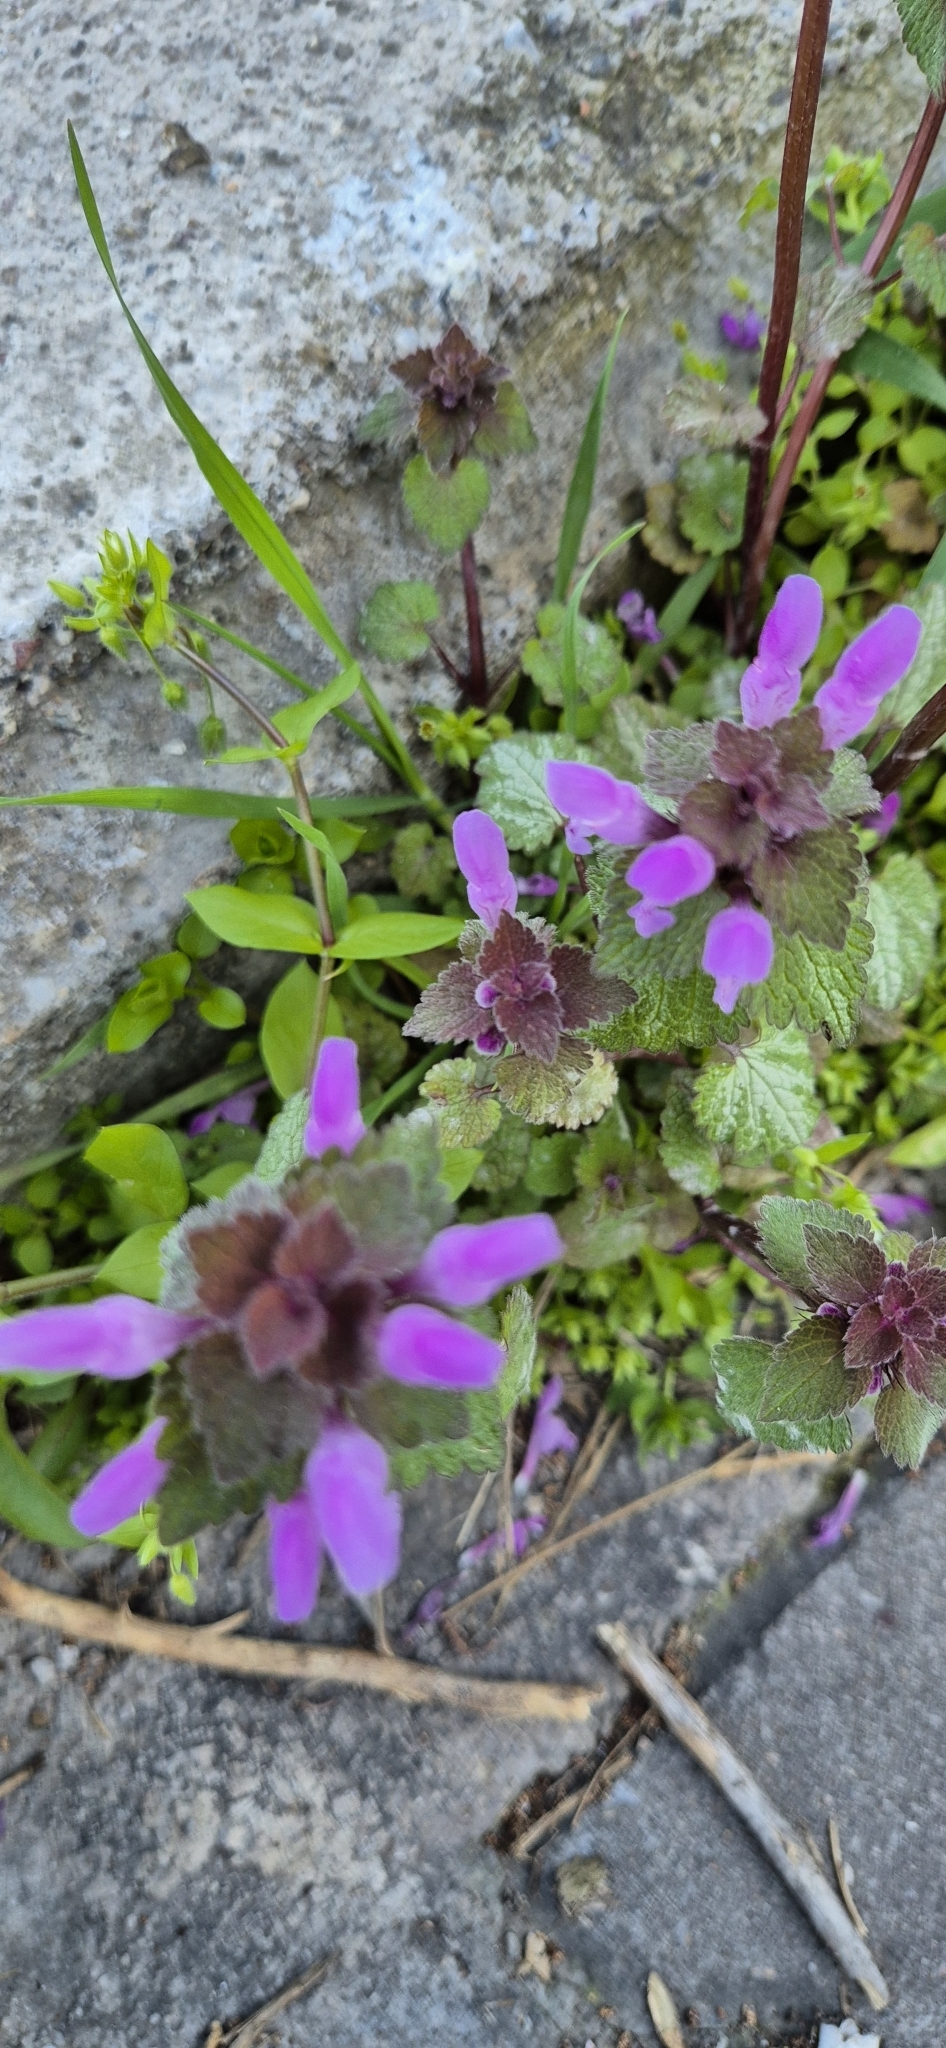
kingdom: Plantae
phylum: Tracheophyta
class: Magnoliopsida
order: Lamiales
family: Lamiaceae
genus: Lamium
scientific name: Lamium purpureum
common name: Red dead-nettle
